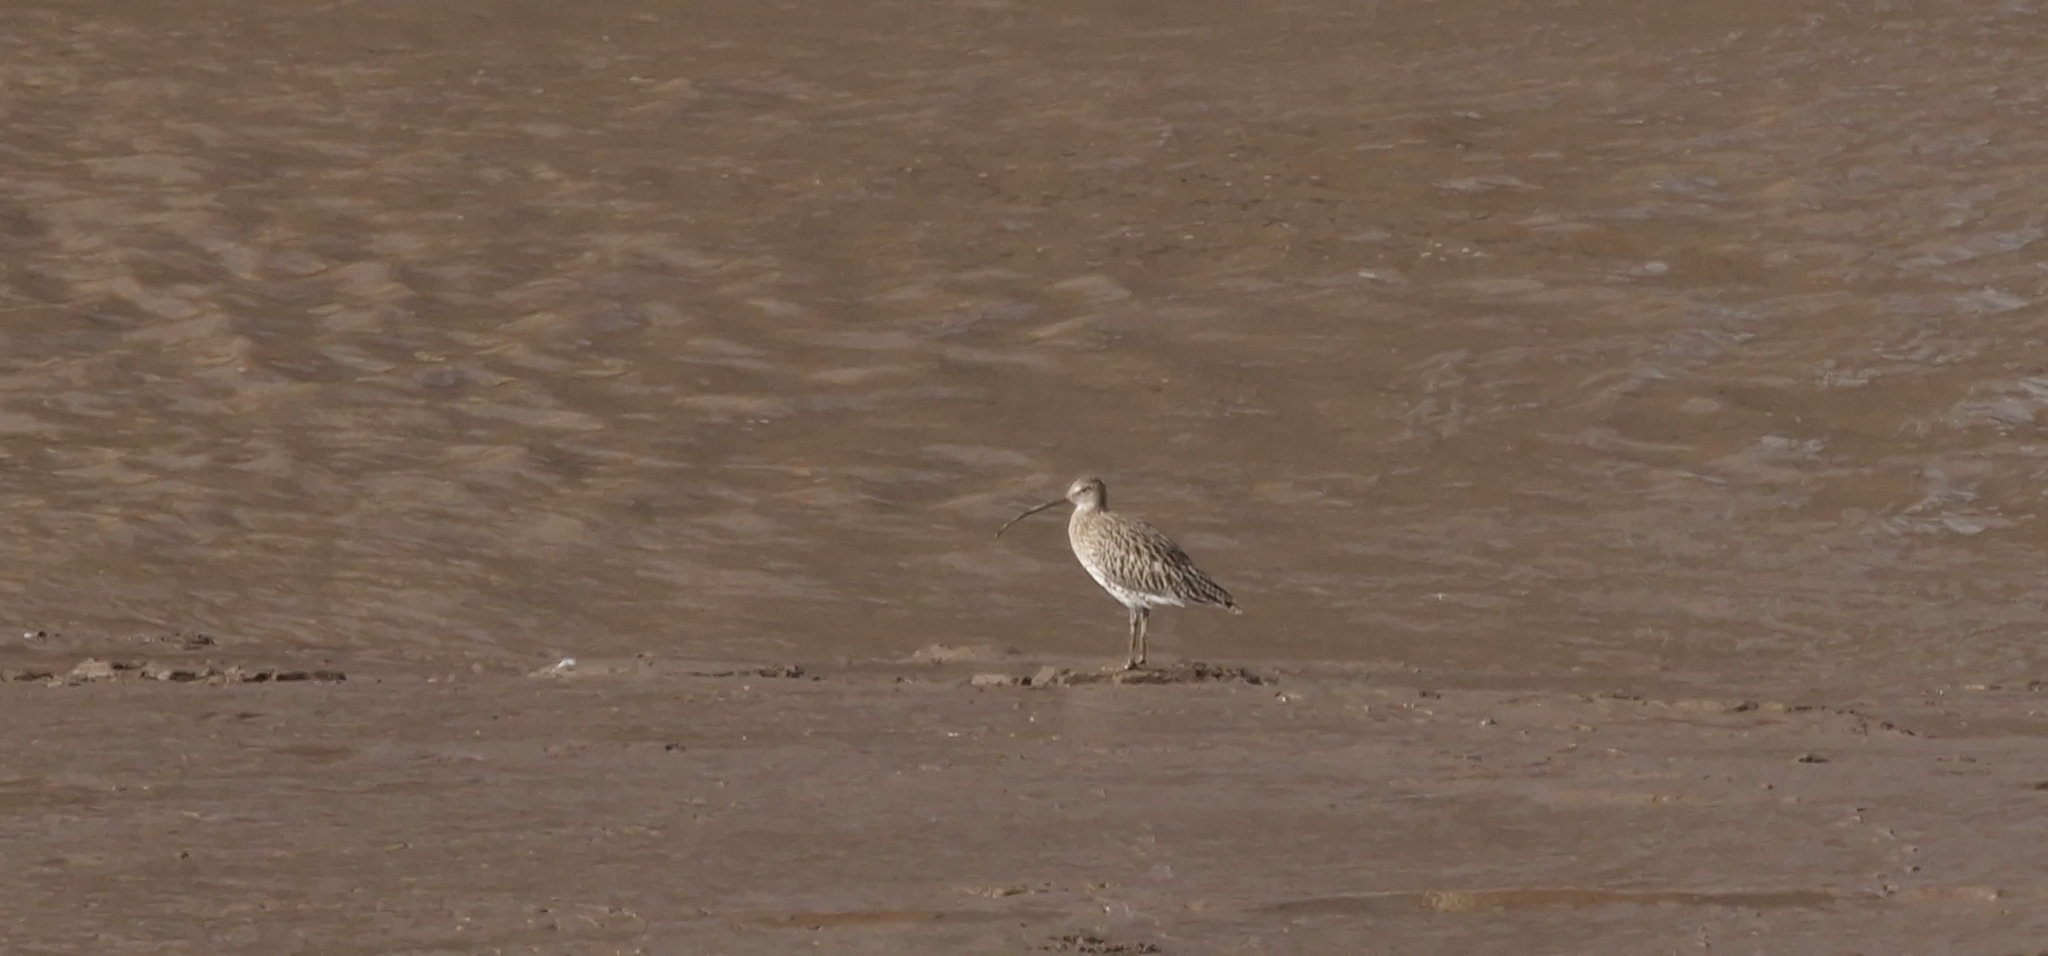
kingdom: Animalia
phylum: Chordata
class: Aves
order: Charadriiformes
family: Scolopacidae
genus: Numenius
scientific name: Numenius arquata
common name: Eurasian curlew
